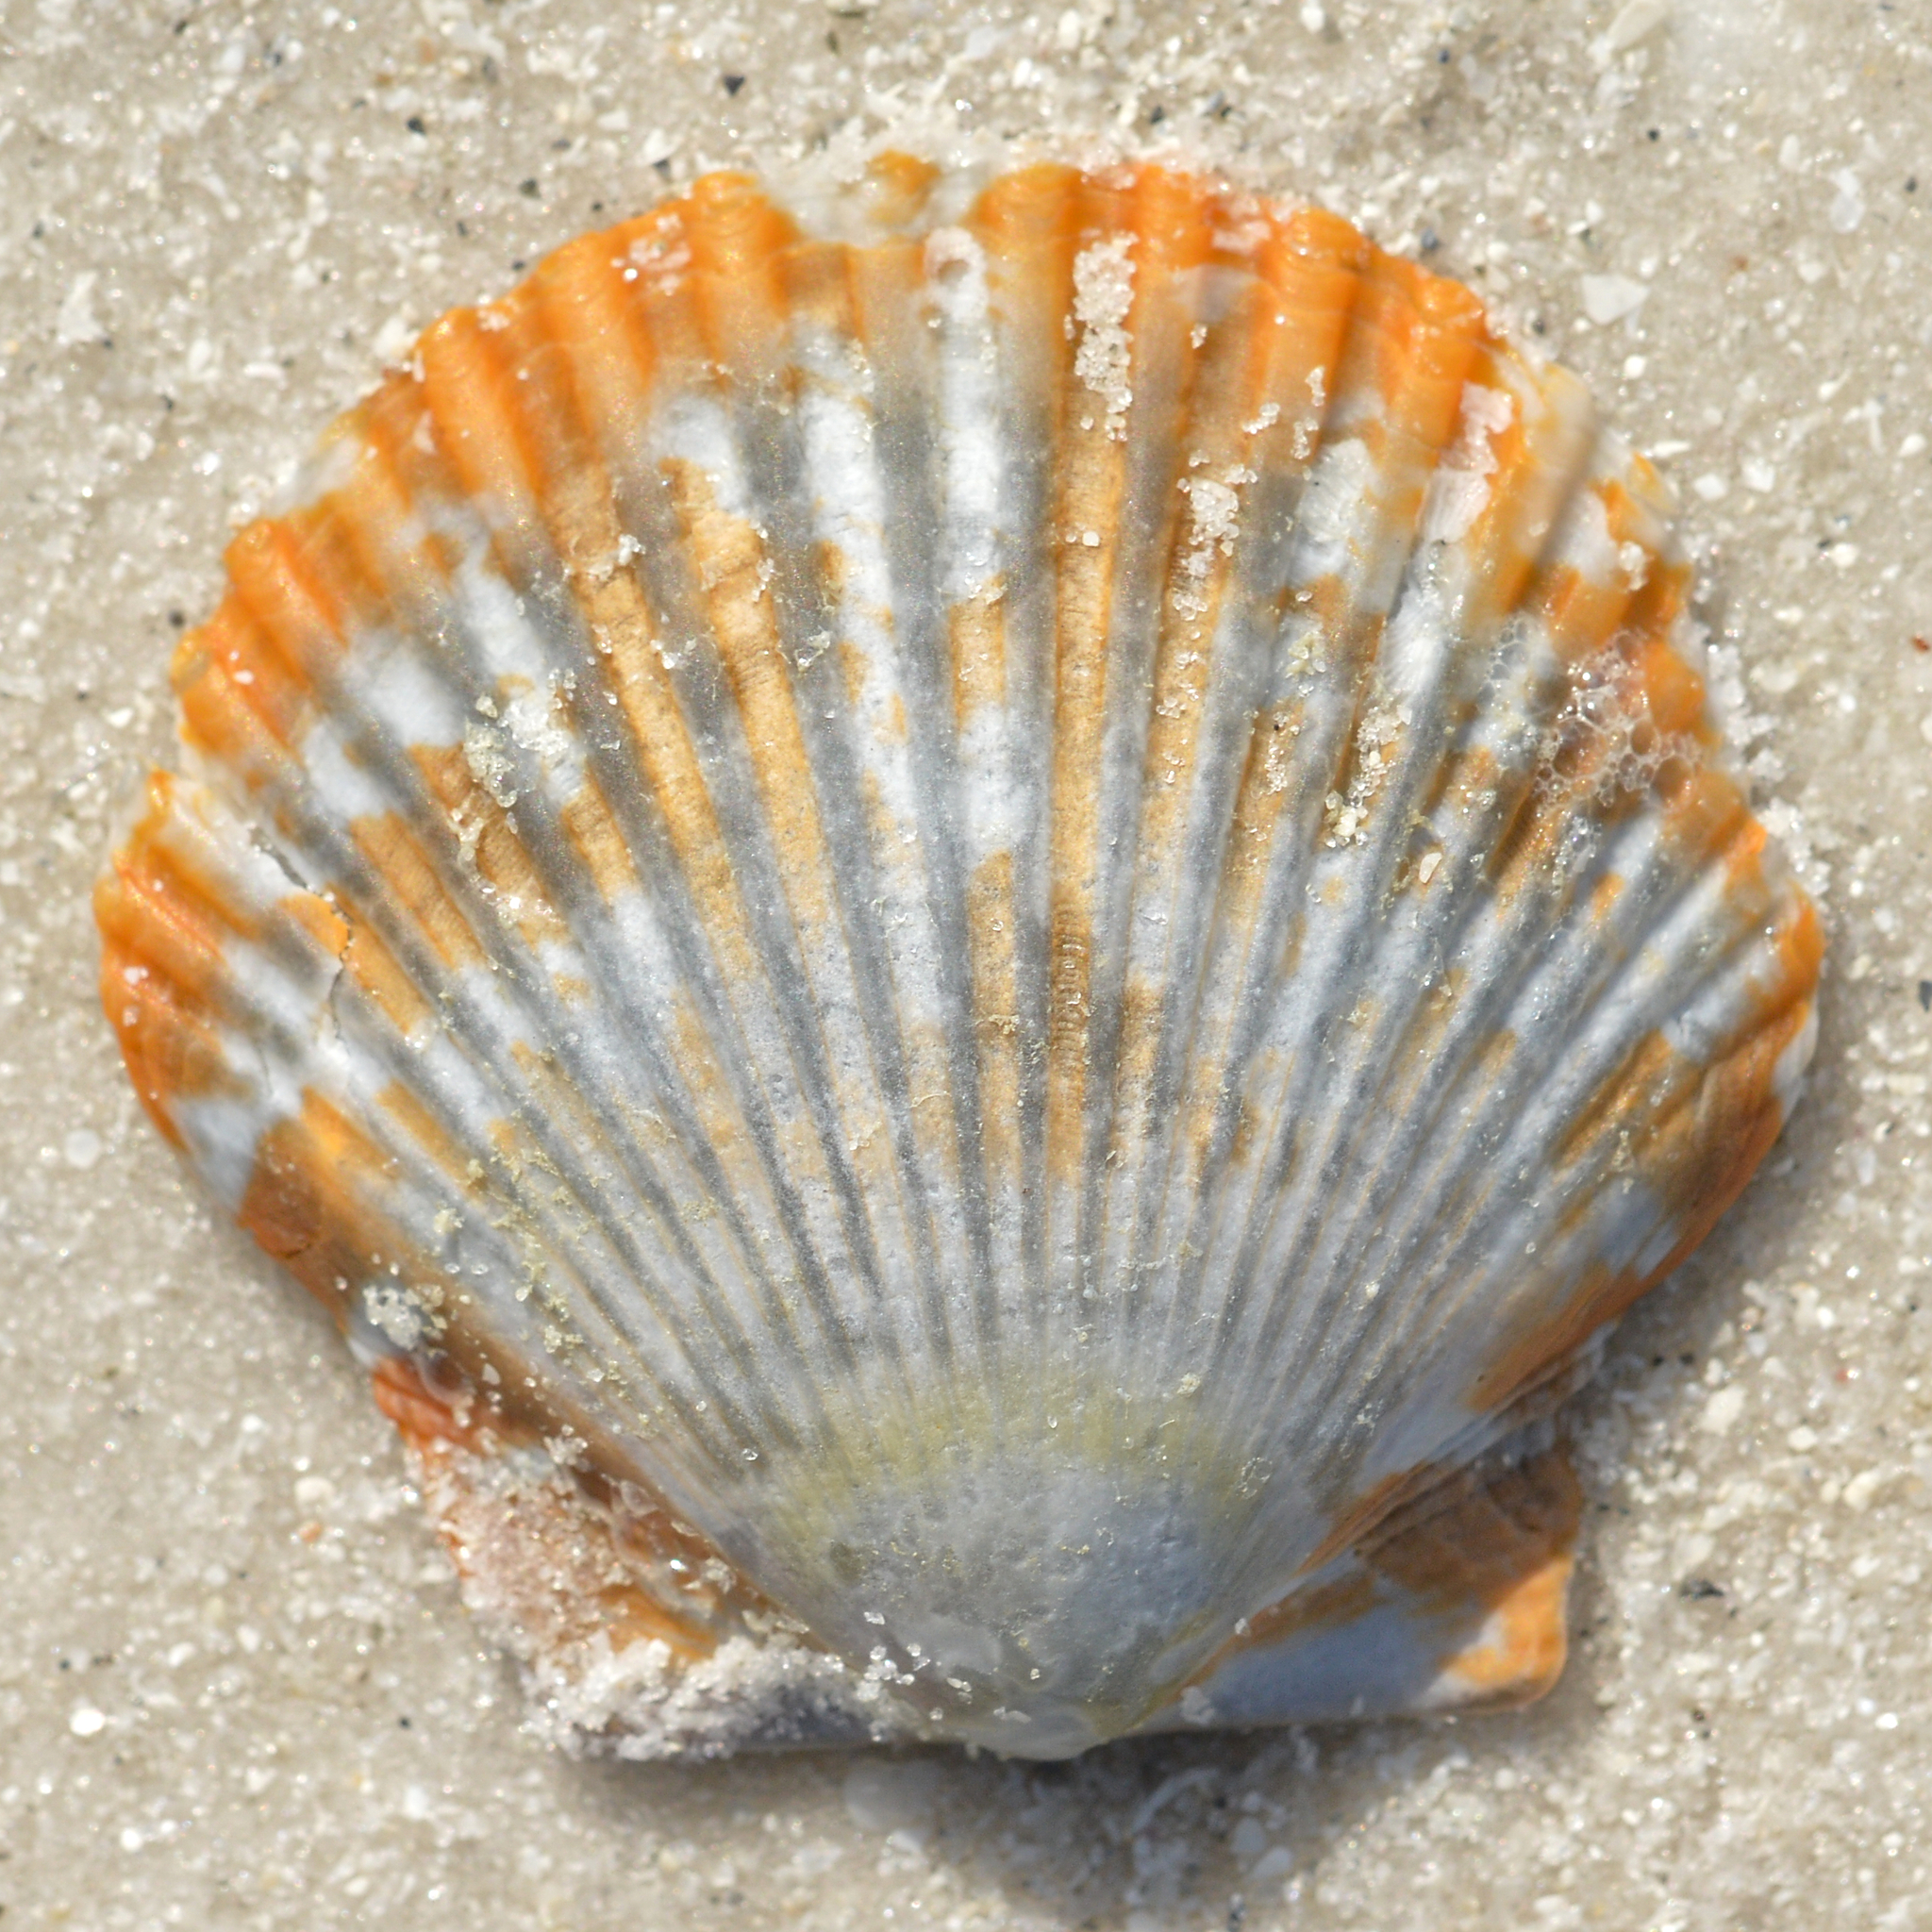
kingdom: Animalia
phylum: Mollusca
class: Bivalvia
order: Pectinida
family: Pectinidae
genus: Argopecten
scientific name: Argopecten gibbus
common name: Atlantic calico scallop
